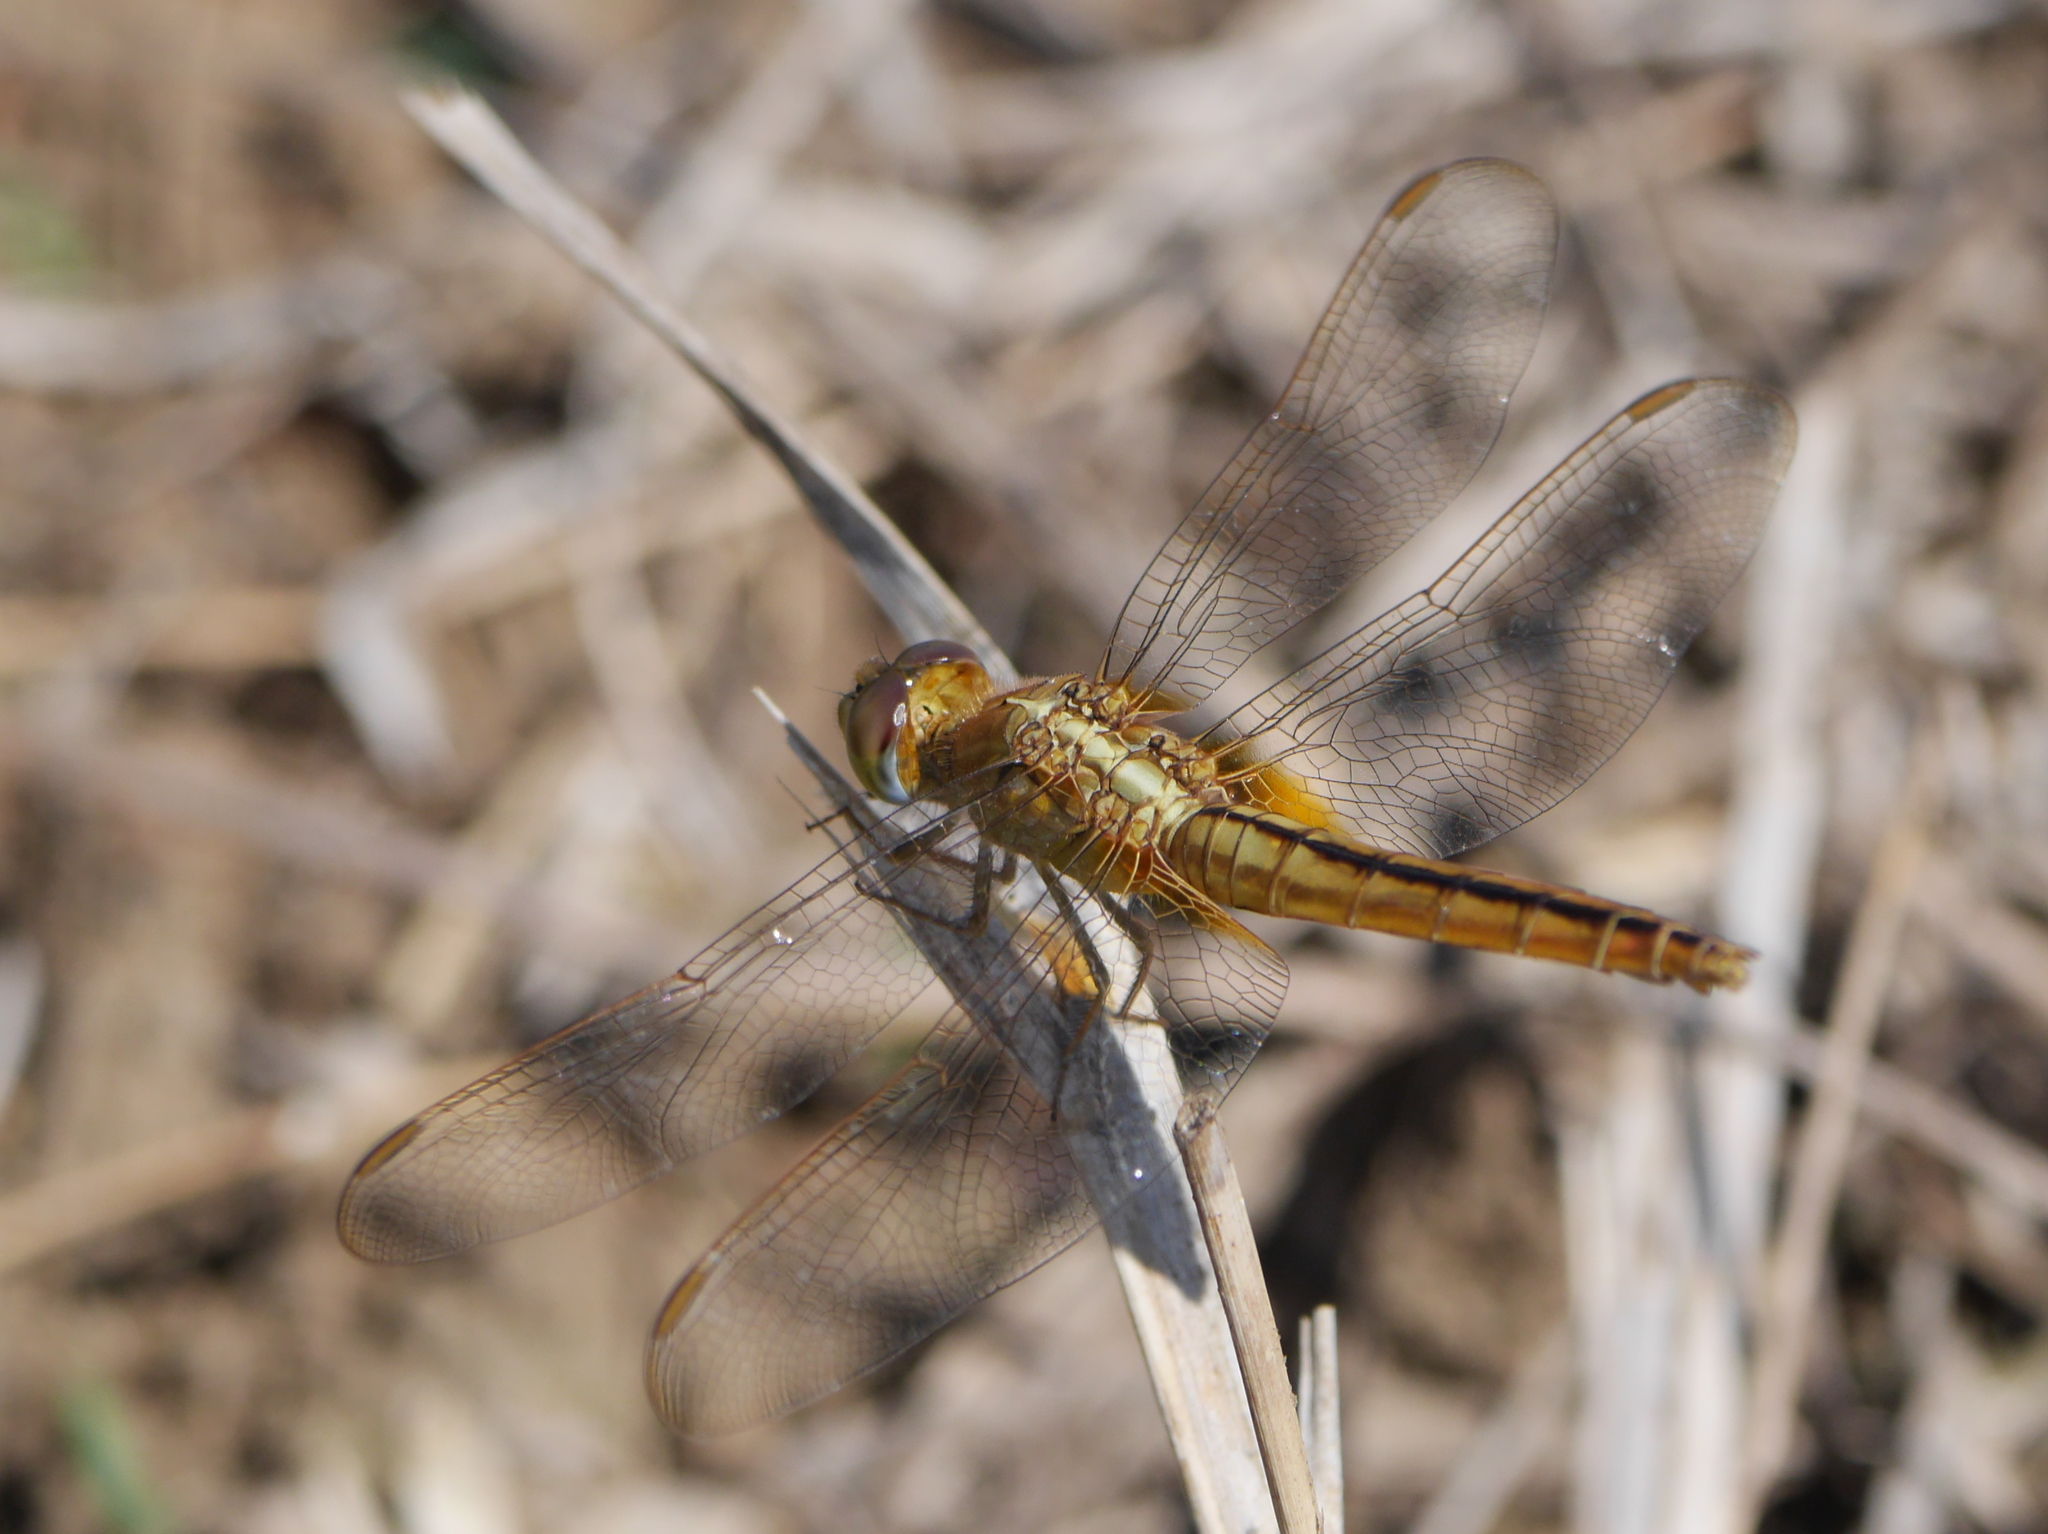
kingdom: Animalia
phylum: Arthropoda
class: Insecta
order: Odonata
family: Libellulidae
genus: Crocothemis
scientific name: Crocothemis servilia
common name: Scarlet skimmer
